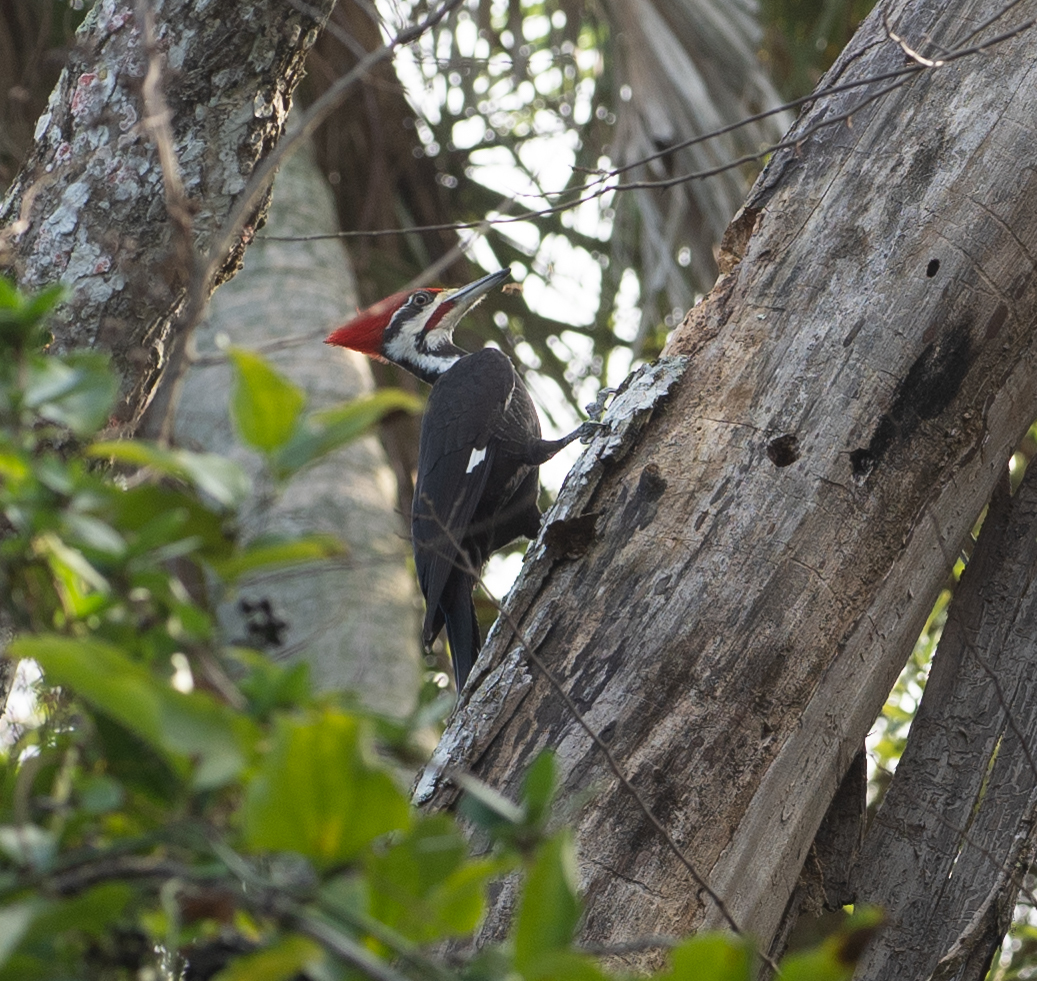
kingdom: Animalia
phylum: Chordata
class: Aves
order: Piciformes
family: Picidae
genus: Dryocopus
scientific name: Dryocopus pileatus
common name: Pileated woodpecker
